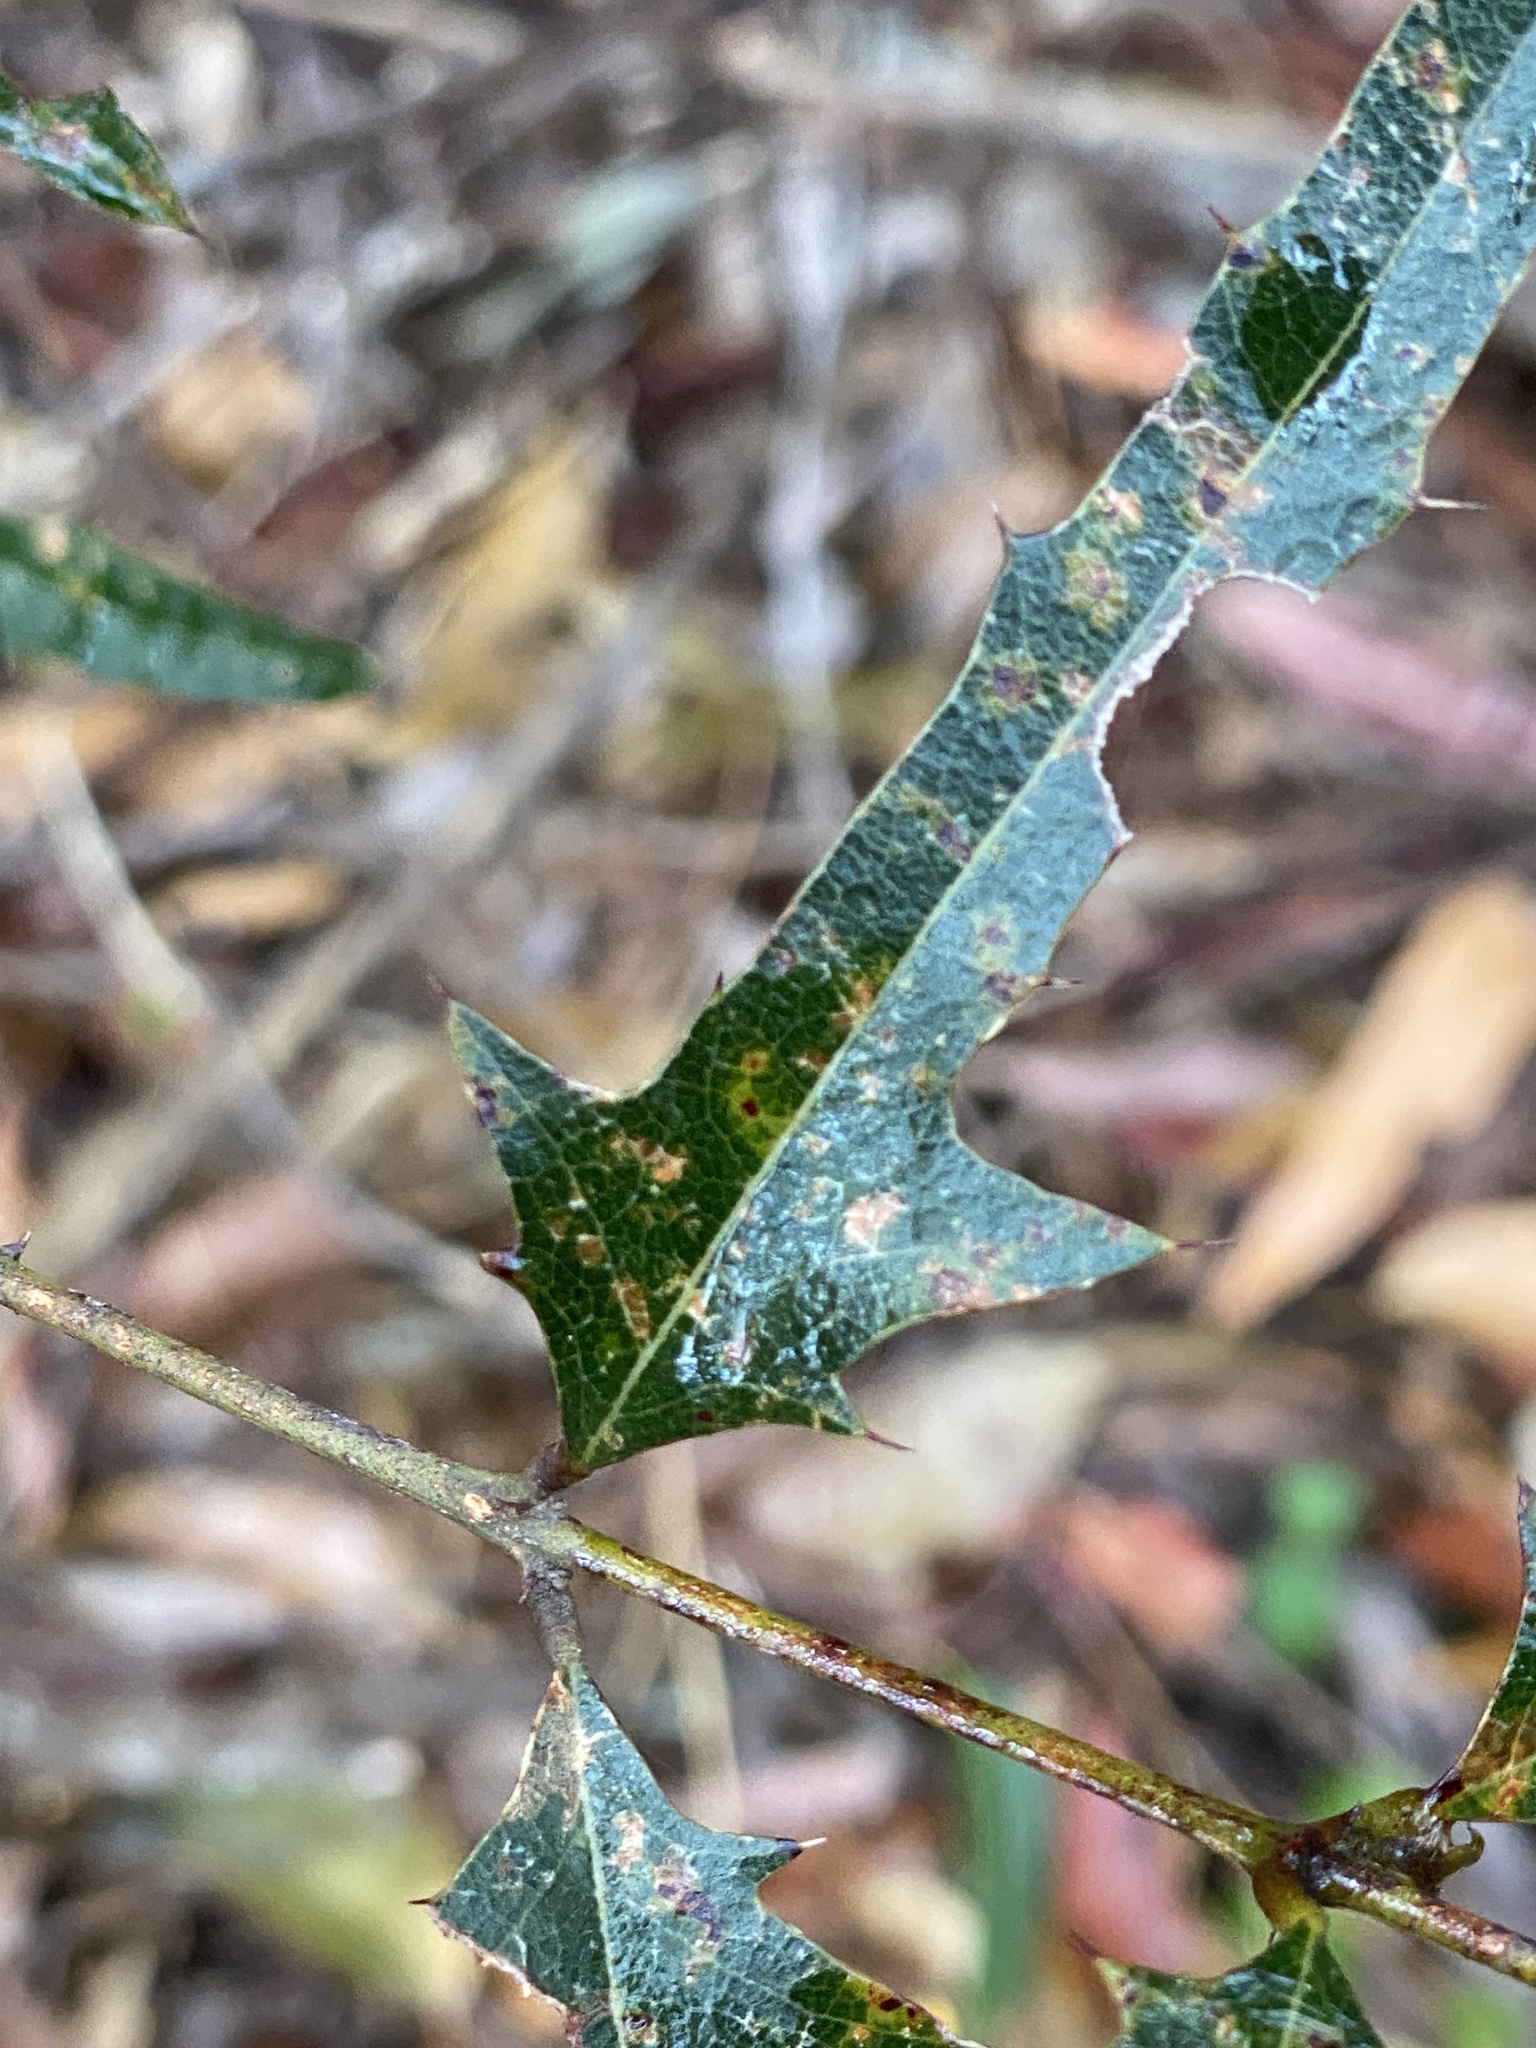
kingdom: Plantae
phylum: Tracheophyta
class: Magnoliopsida
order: Fabales
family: Fabaceae
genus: Podolobium
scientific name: Podolobium ilicifolium
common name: Native holly
